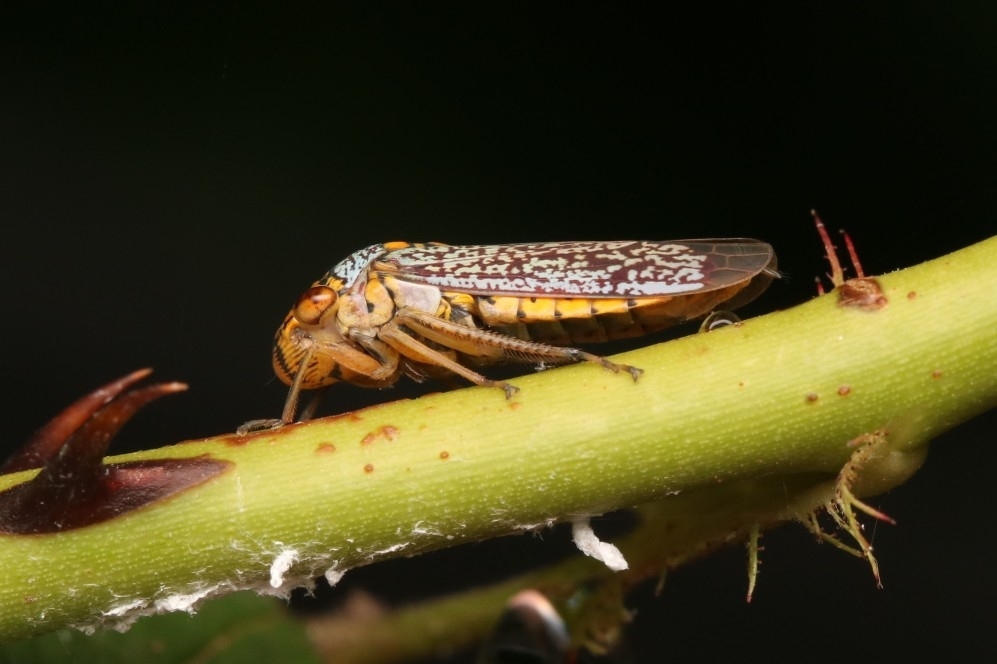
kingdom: Animalia
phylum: Arthropoda
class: Insecta
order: Hemiptera
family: Cicadellidae
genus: Oncometopia
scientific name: Oncometopia orbona
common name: Broad-headed sharpshooter
